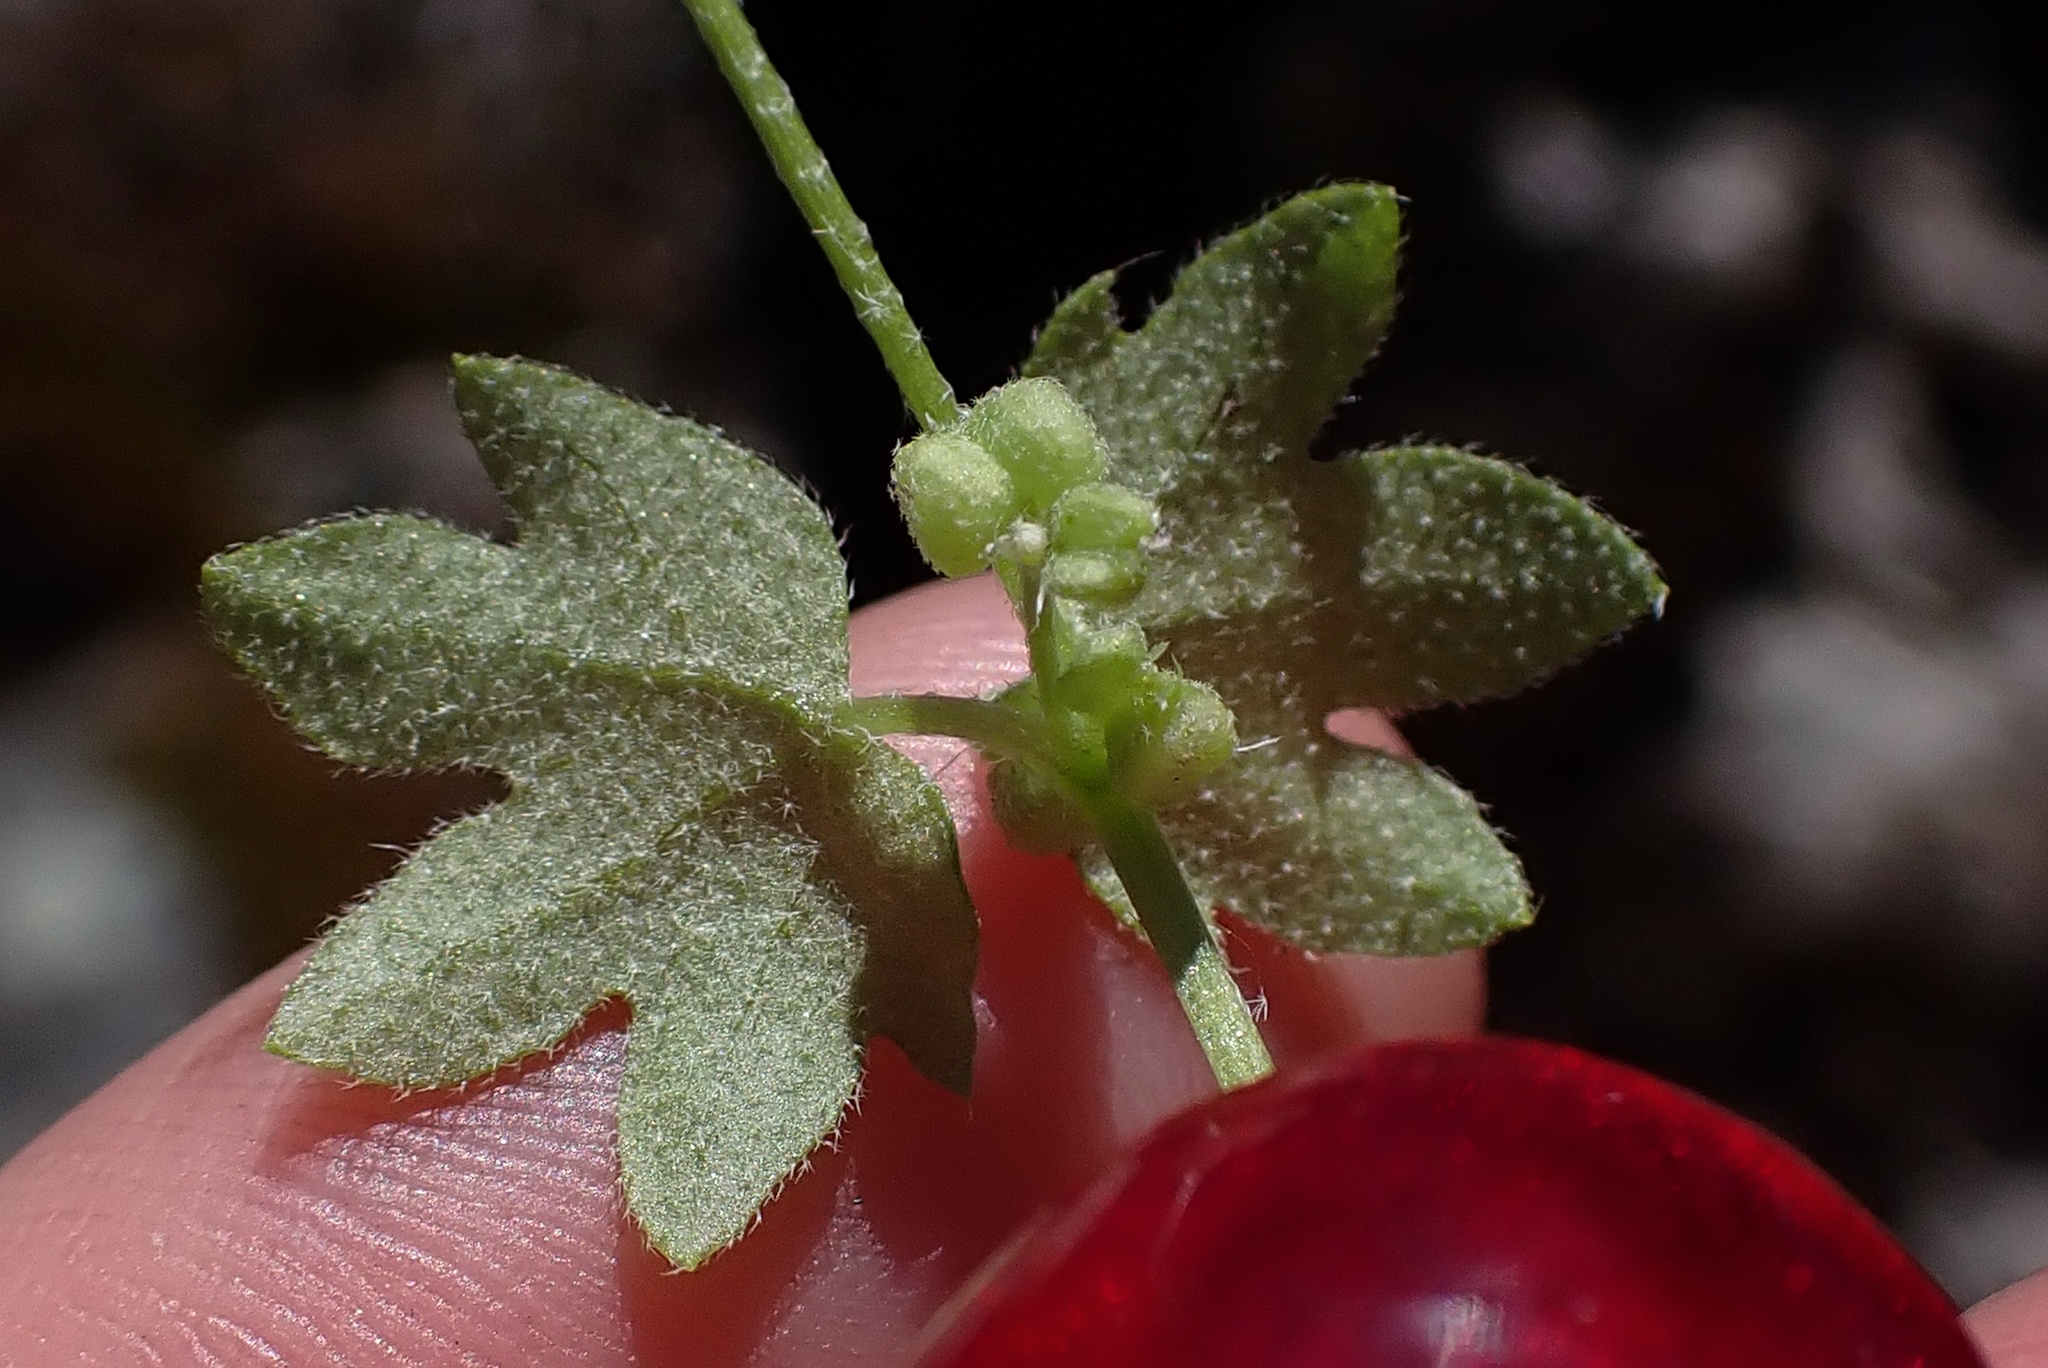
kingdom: Plantae
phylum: Tracheophyta
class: Magnoliopsida
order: Apiales
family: Apiaceae
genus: Bowlesia
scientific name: Bowlesia incana
